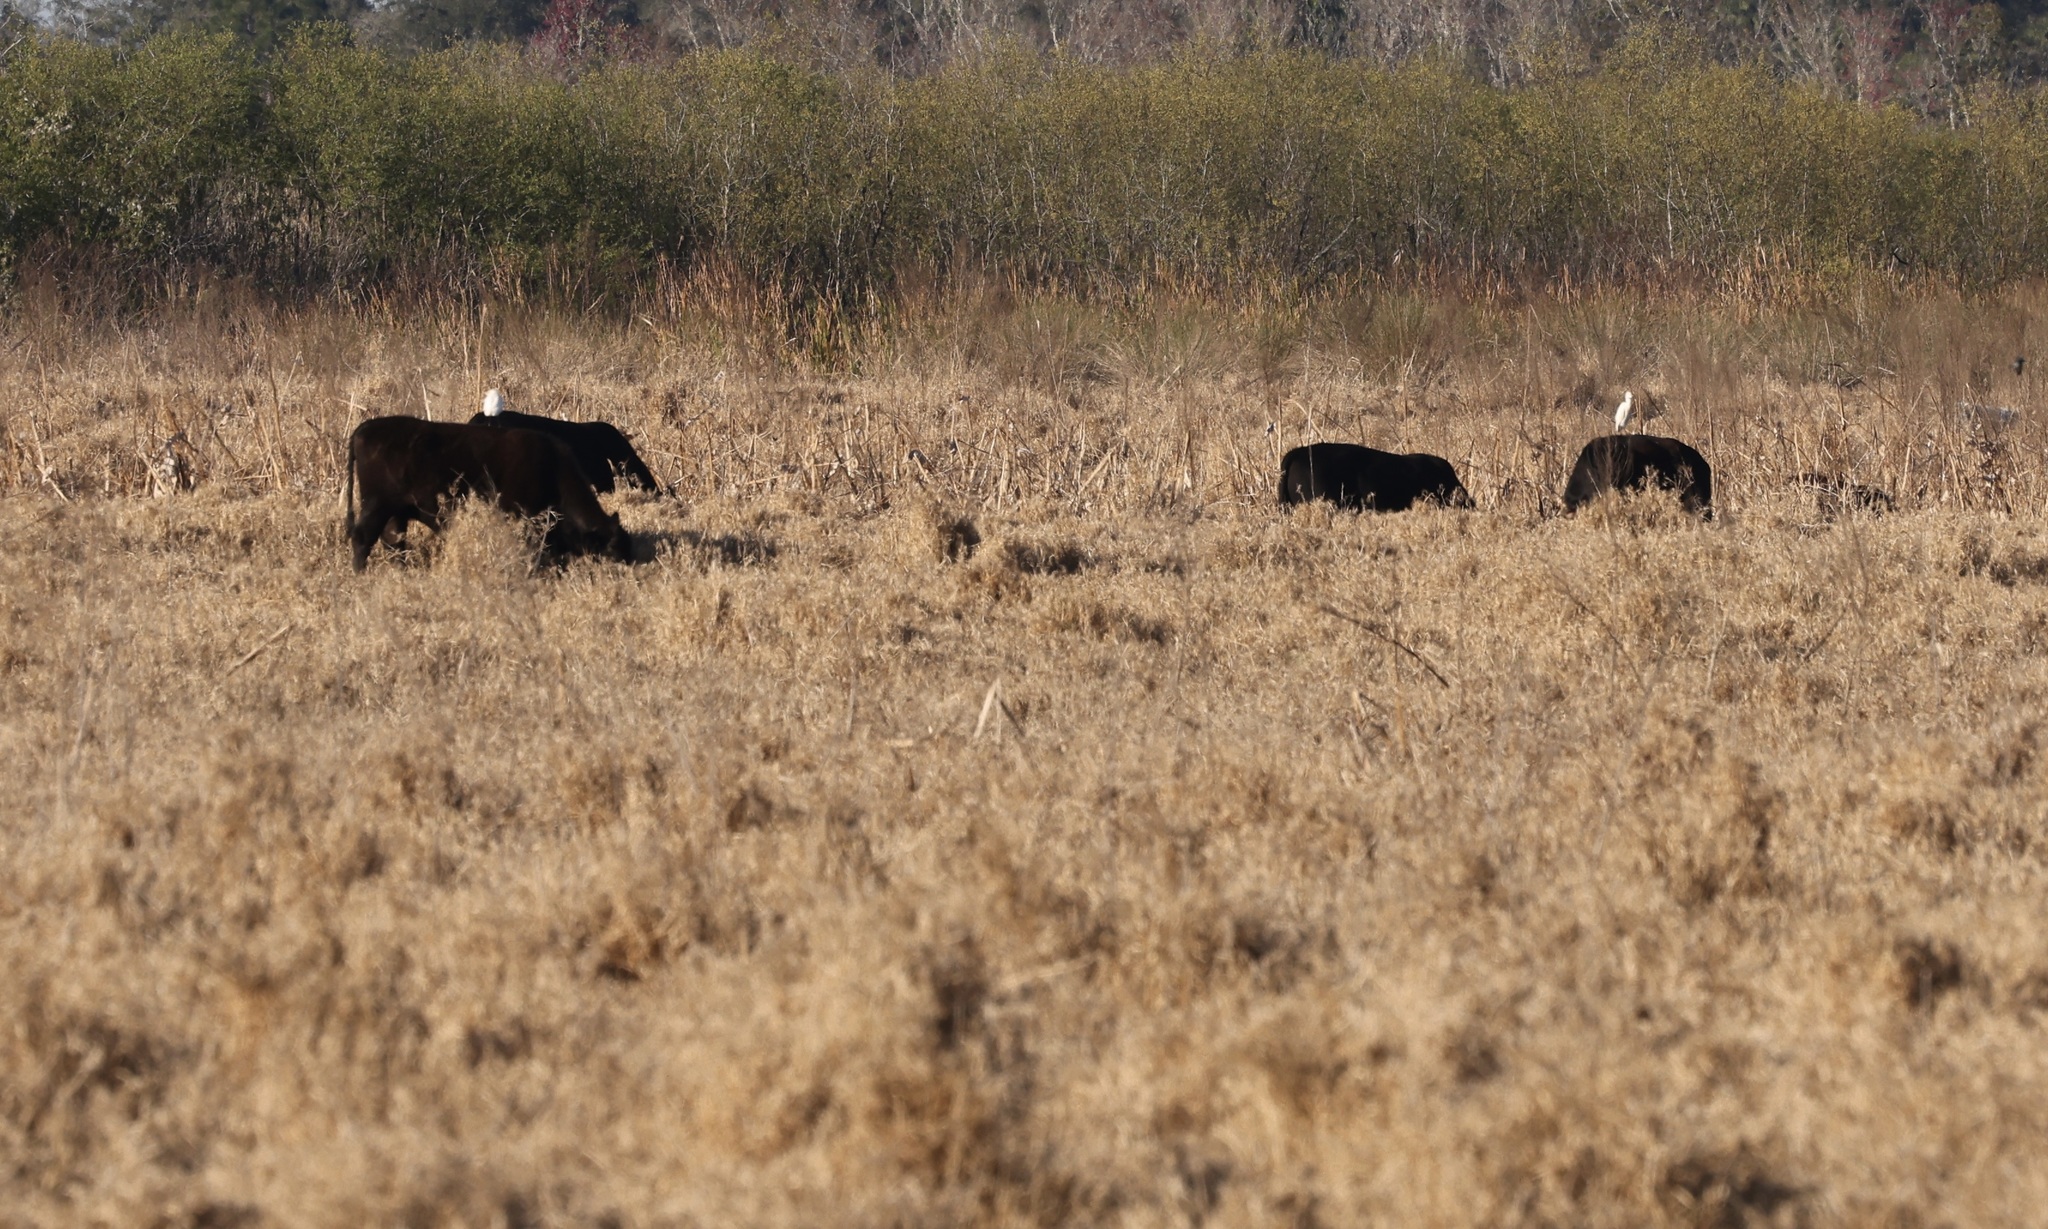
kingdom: Animalia
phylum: Chordata
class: Aves
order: Pelecaniformes
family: Ardeidae
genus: Bubulcus
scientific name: Bubulcus ibis
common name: Cattle egret
